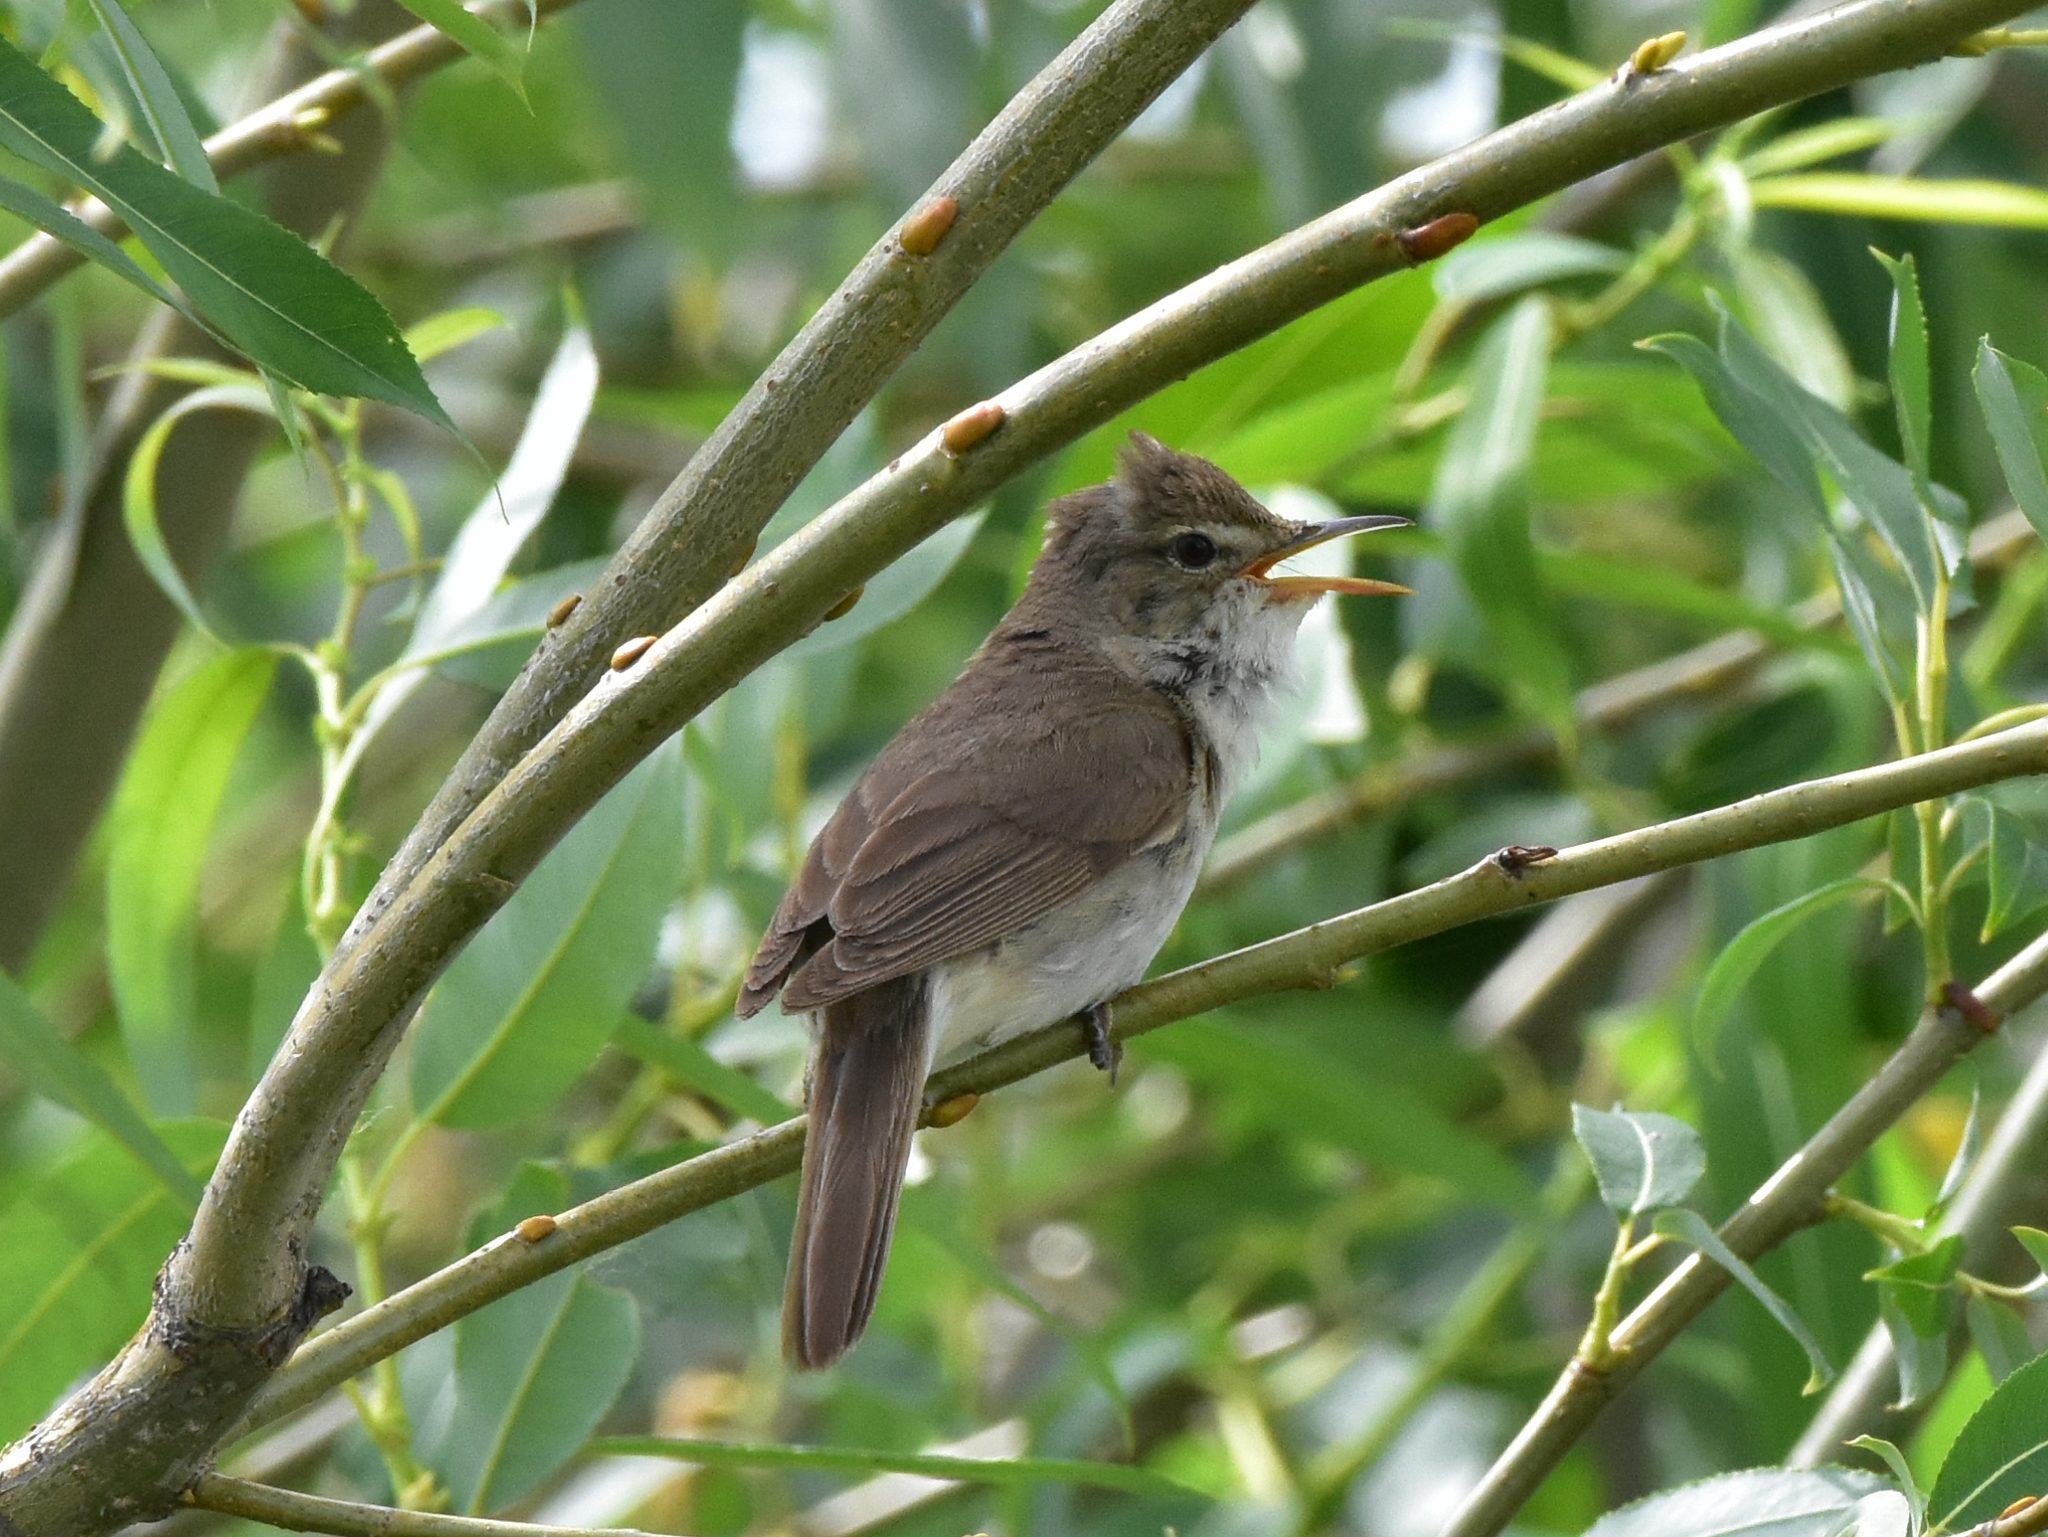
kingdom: Animalia
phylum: Chordata
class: Aves
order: Passeriformes
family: Acrocephalidae
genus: Acrocephalus
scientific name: Acrocephalus dumetorum
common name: Blyth's reed warbler
